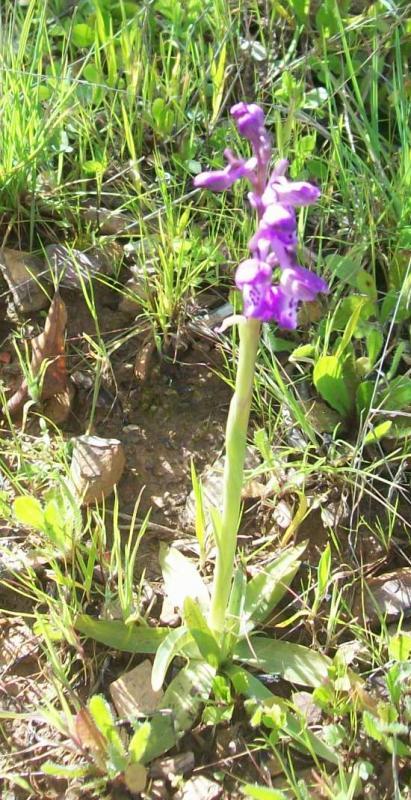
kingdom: Plantae
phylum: Tracheophyta
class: Liliopsida
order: Asparagales
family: Orchidaceae
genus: Anacamptis
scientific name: Anacamptis morio
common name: Green-winged orchid
